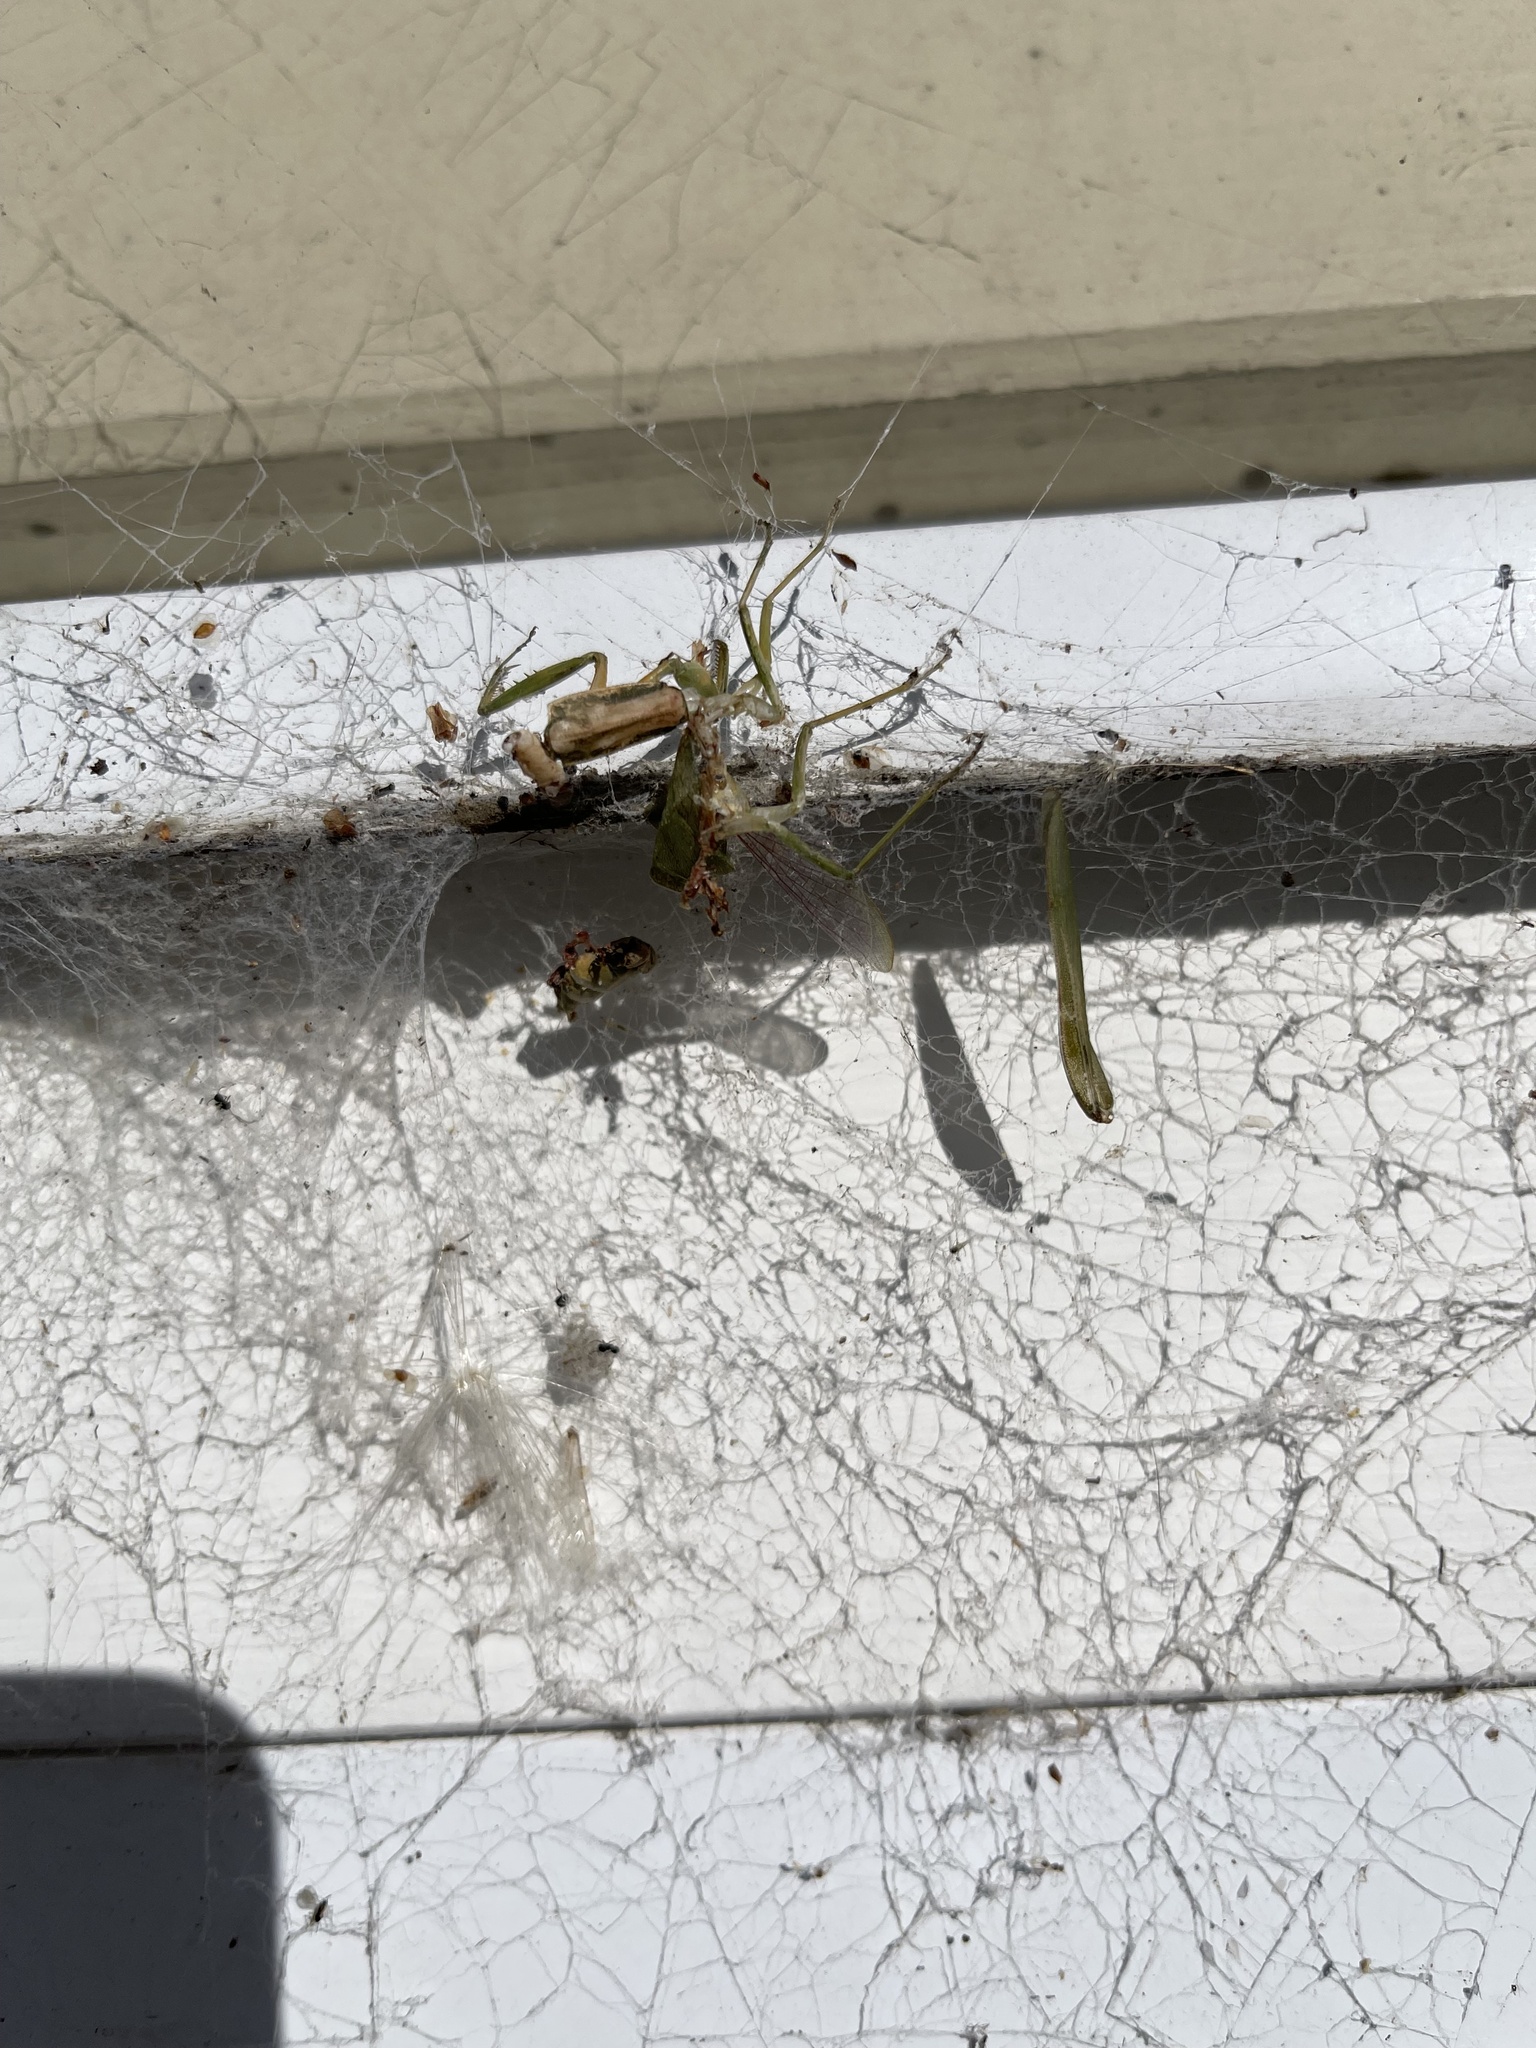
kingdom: Animalia
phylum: Arthropoda
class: Insecta
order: Mantodea
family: Mantidae
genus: Orthodera
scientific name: Orthodera novaezealandiae
